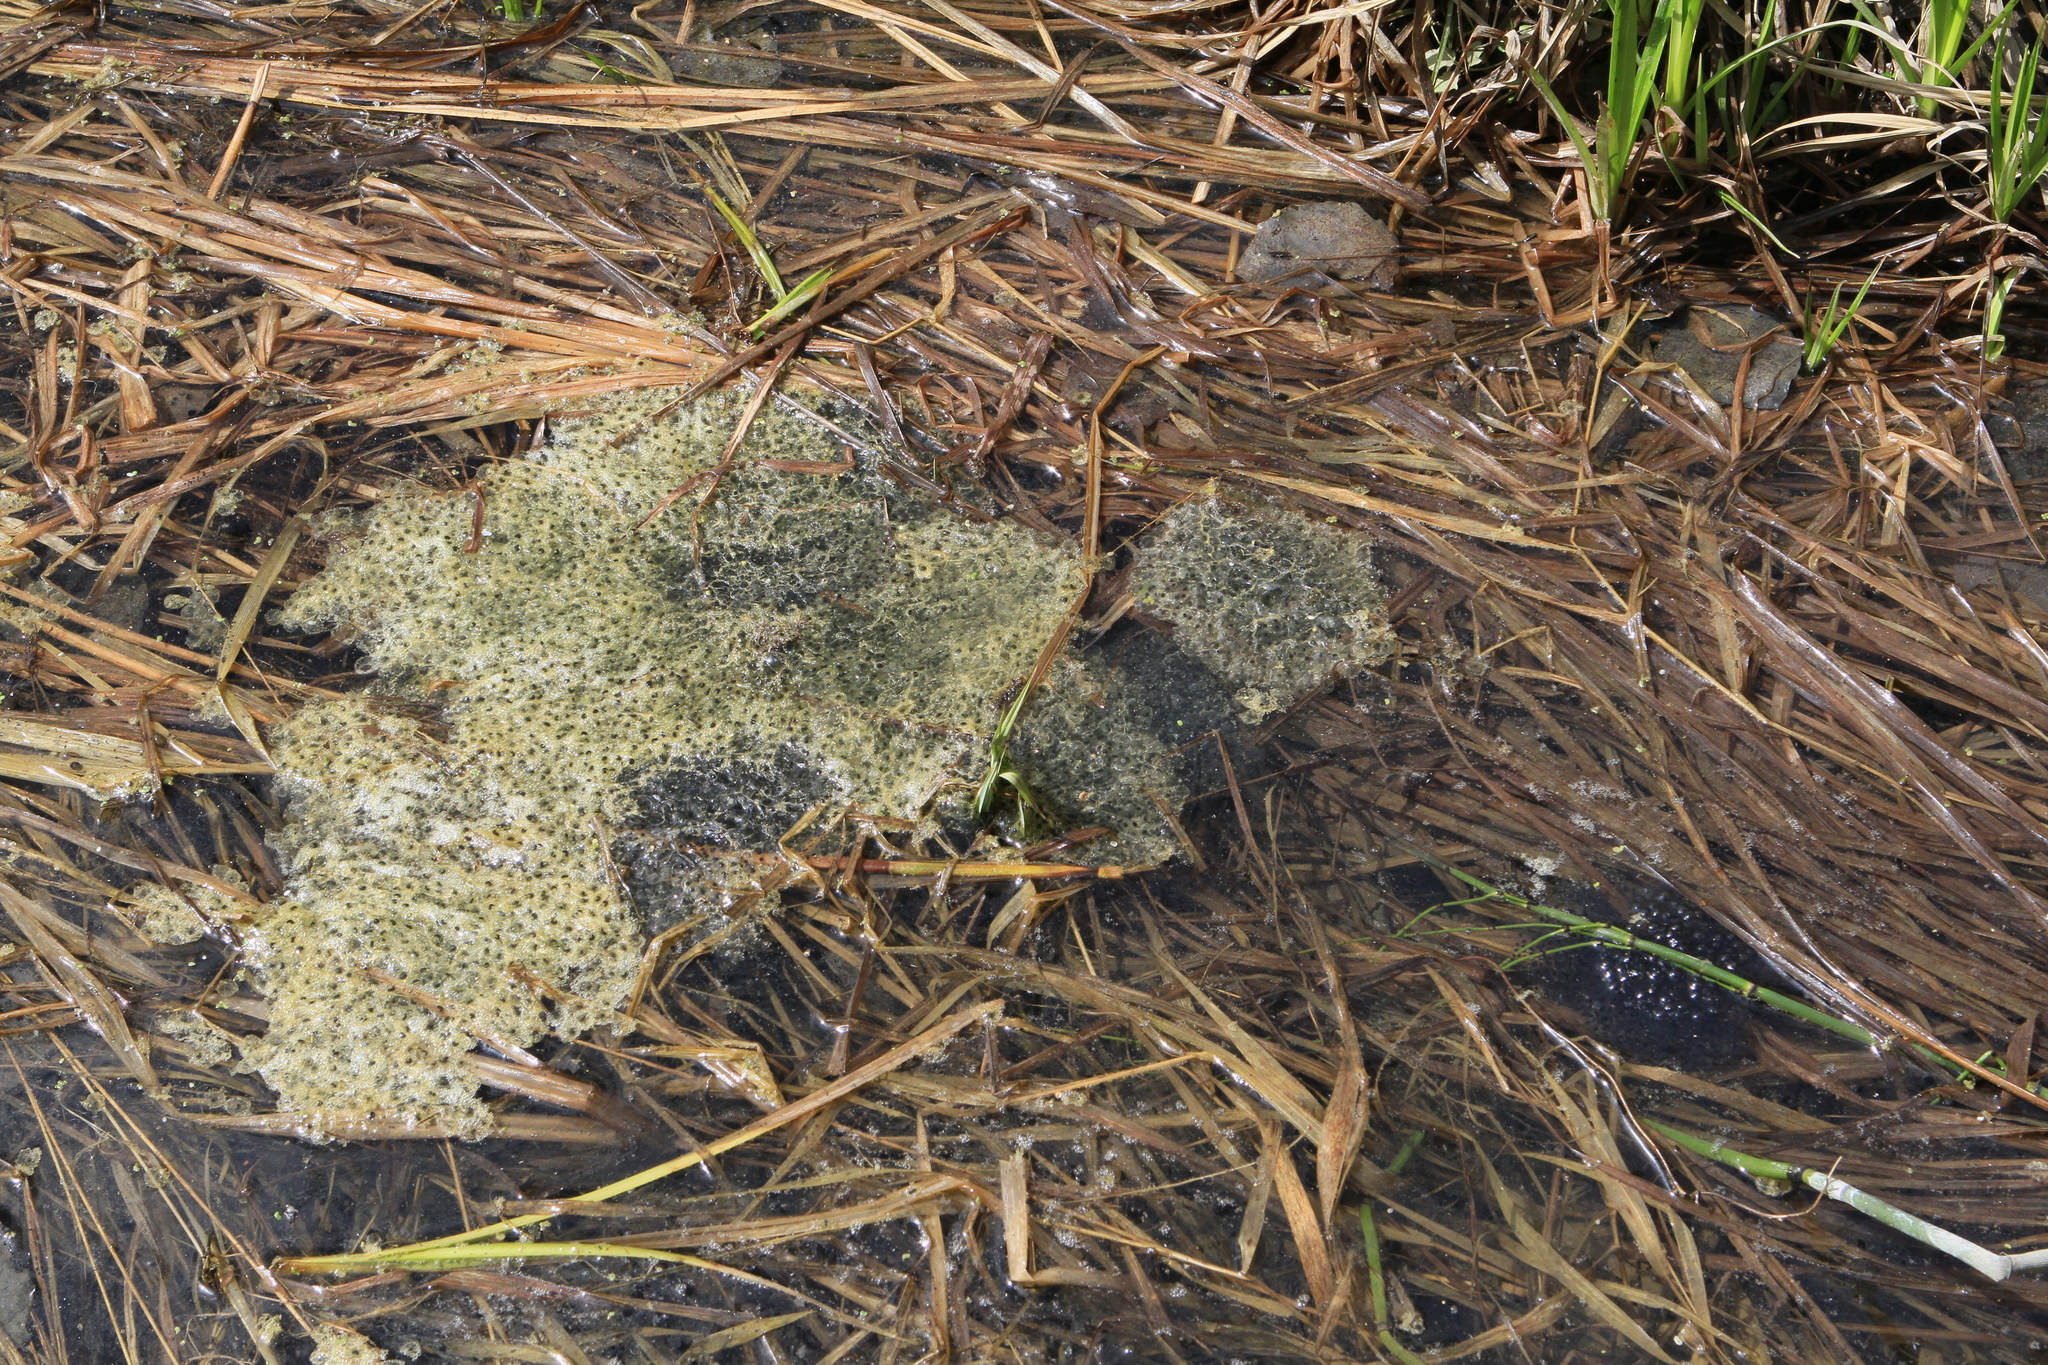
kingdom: Animalia
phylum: Chordata
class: Amphibia
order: Anura
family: Ranidae
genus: Rana
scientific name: Rana arvalis
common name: Moor frog
